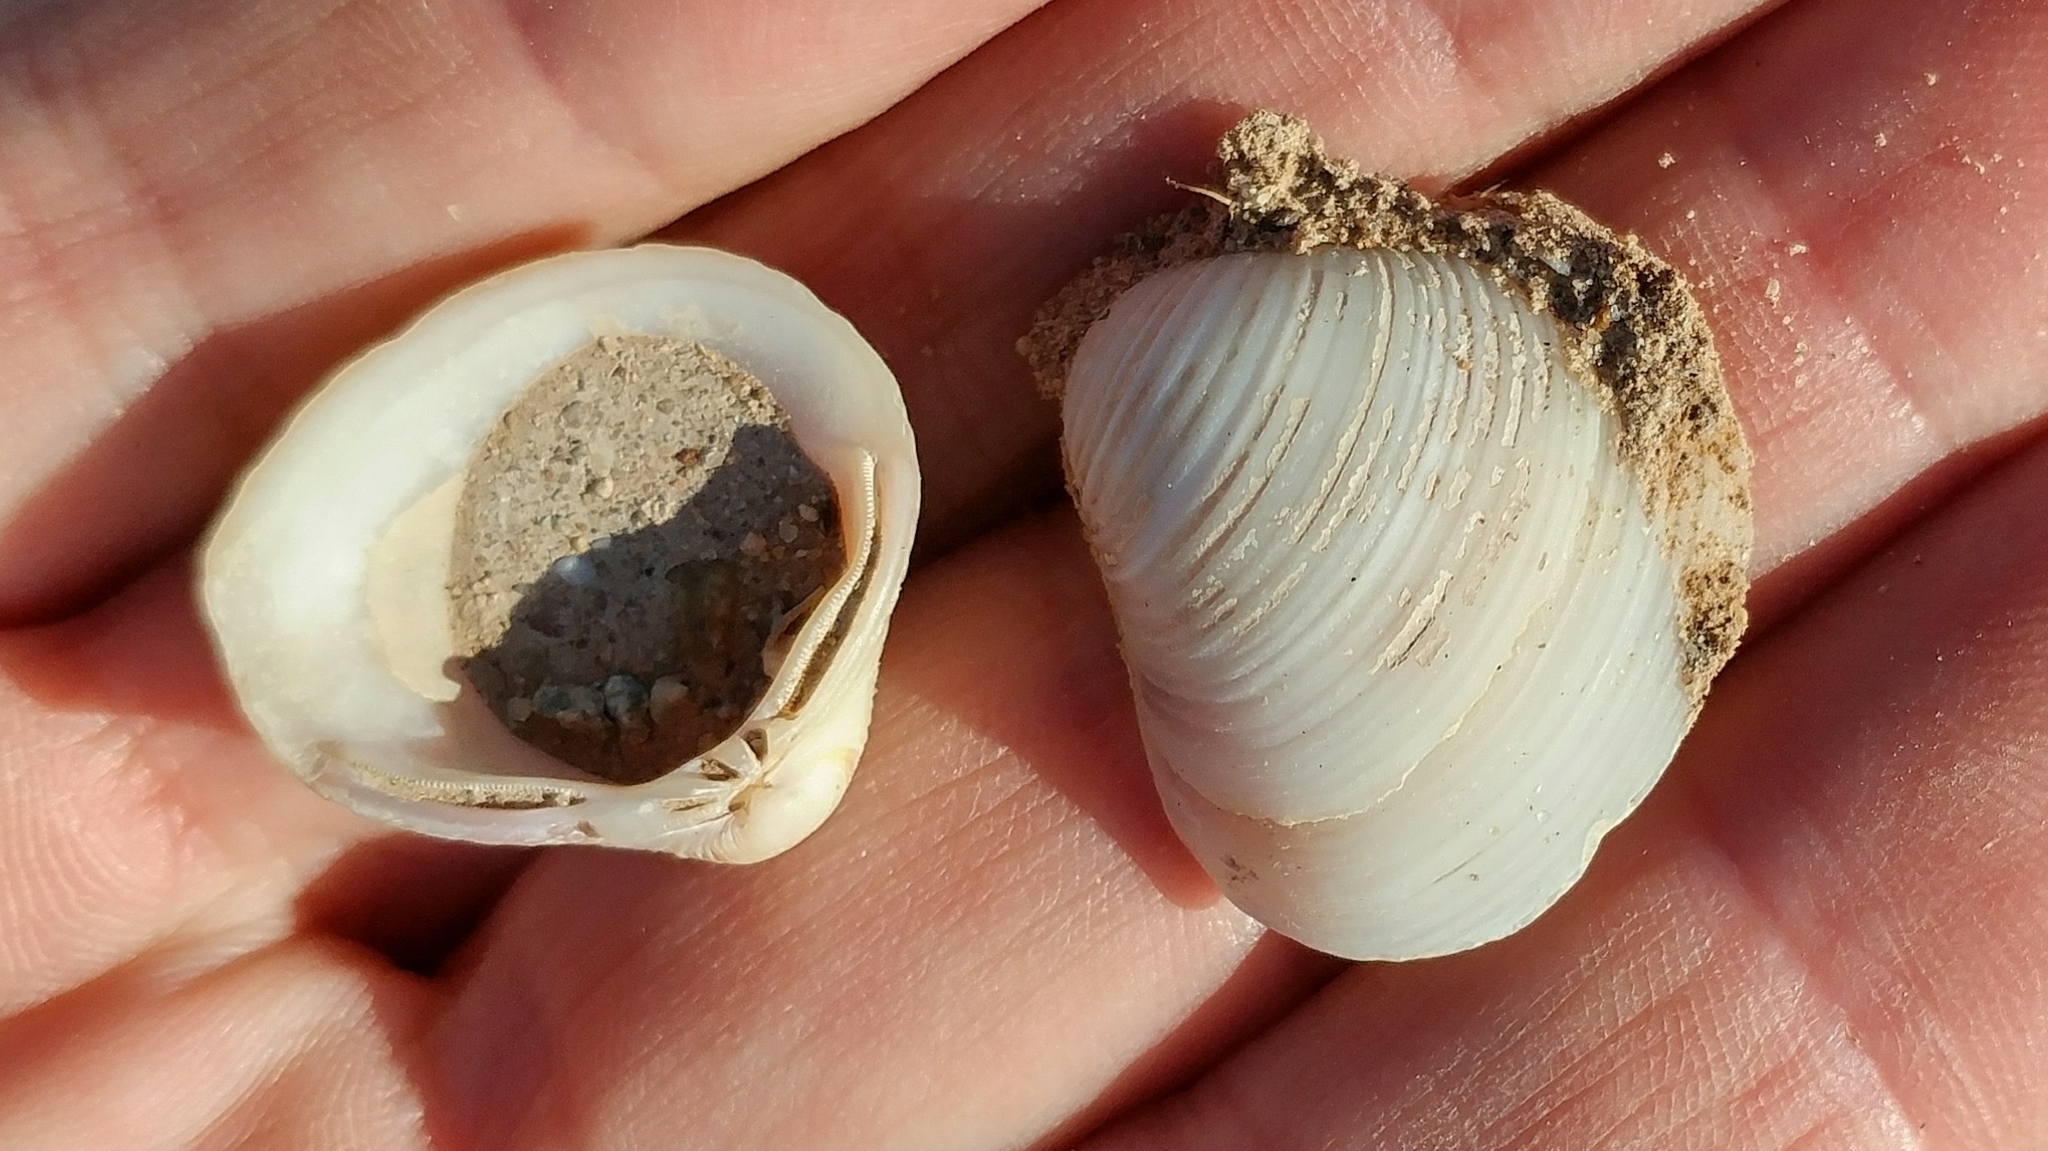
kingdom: Animalia
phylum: Mollusca
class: Bivalvia
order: Venerida
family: Cyrenidae
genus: Corbicula
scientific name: Corbicula fluminea
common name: Asian clam
